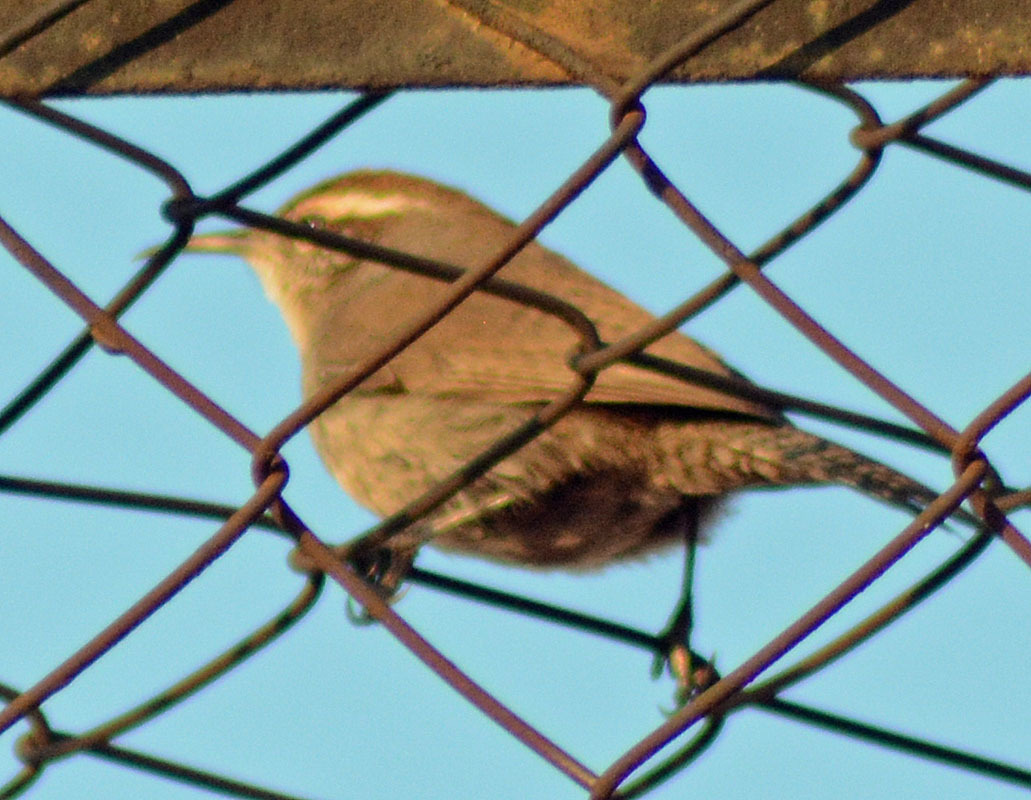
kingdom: Animalia
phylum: Chordata
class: Aves
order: Passeriformes
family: Troglodytidae
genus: Thryomanes
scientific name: Thryomanes bewickii
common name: Bewick's wren
